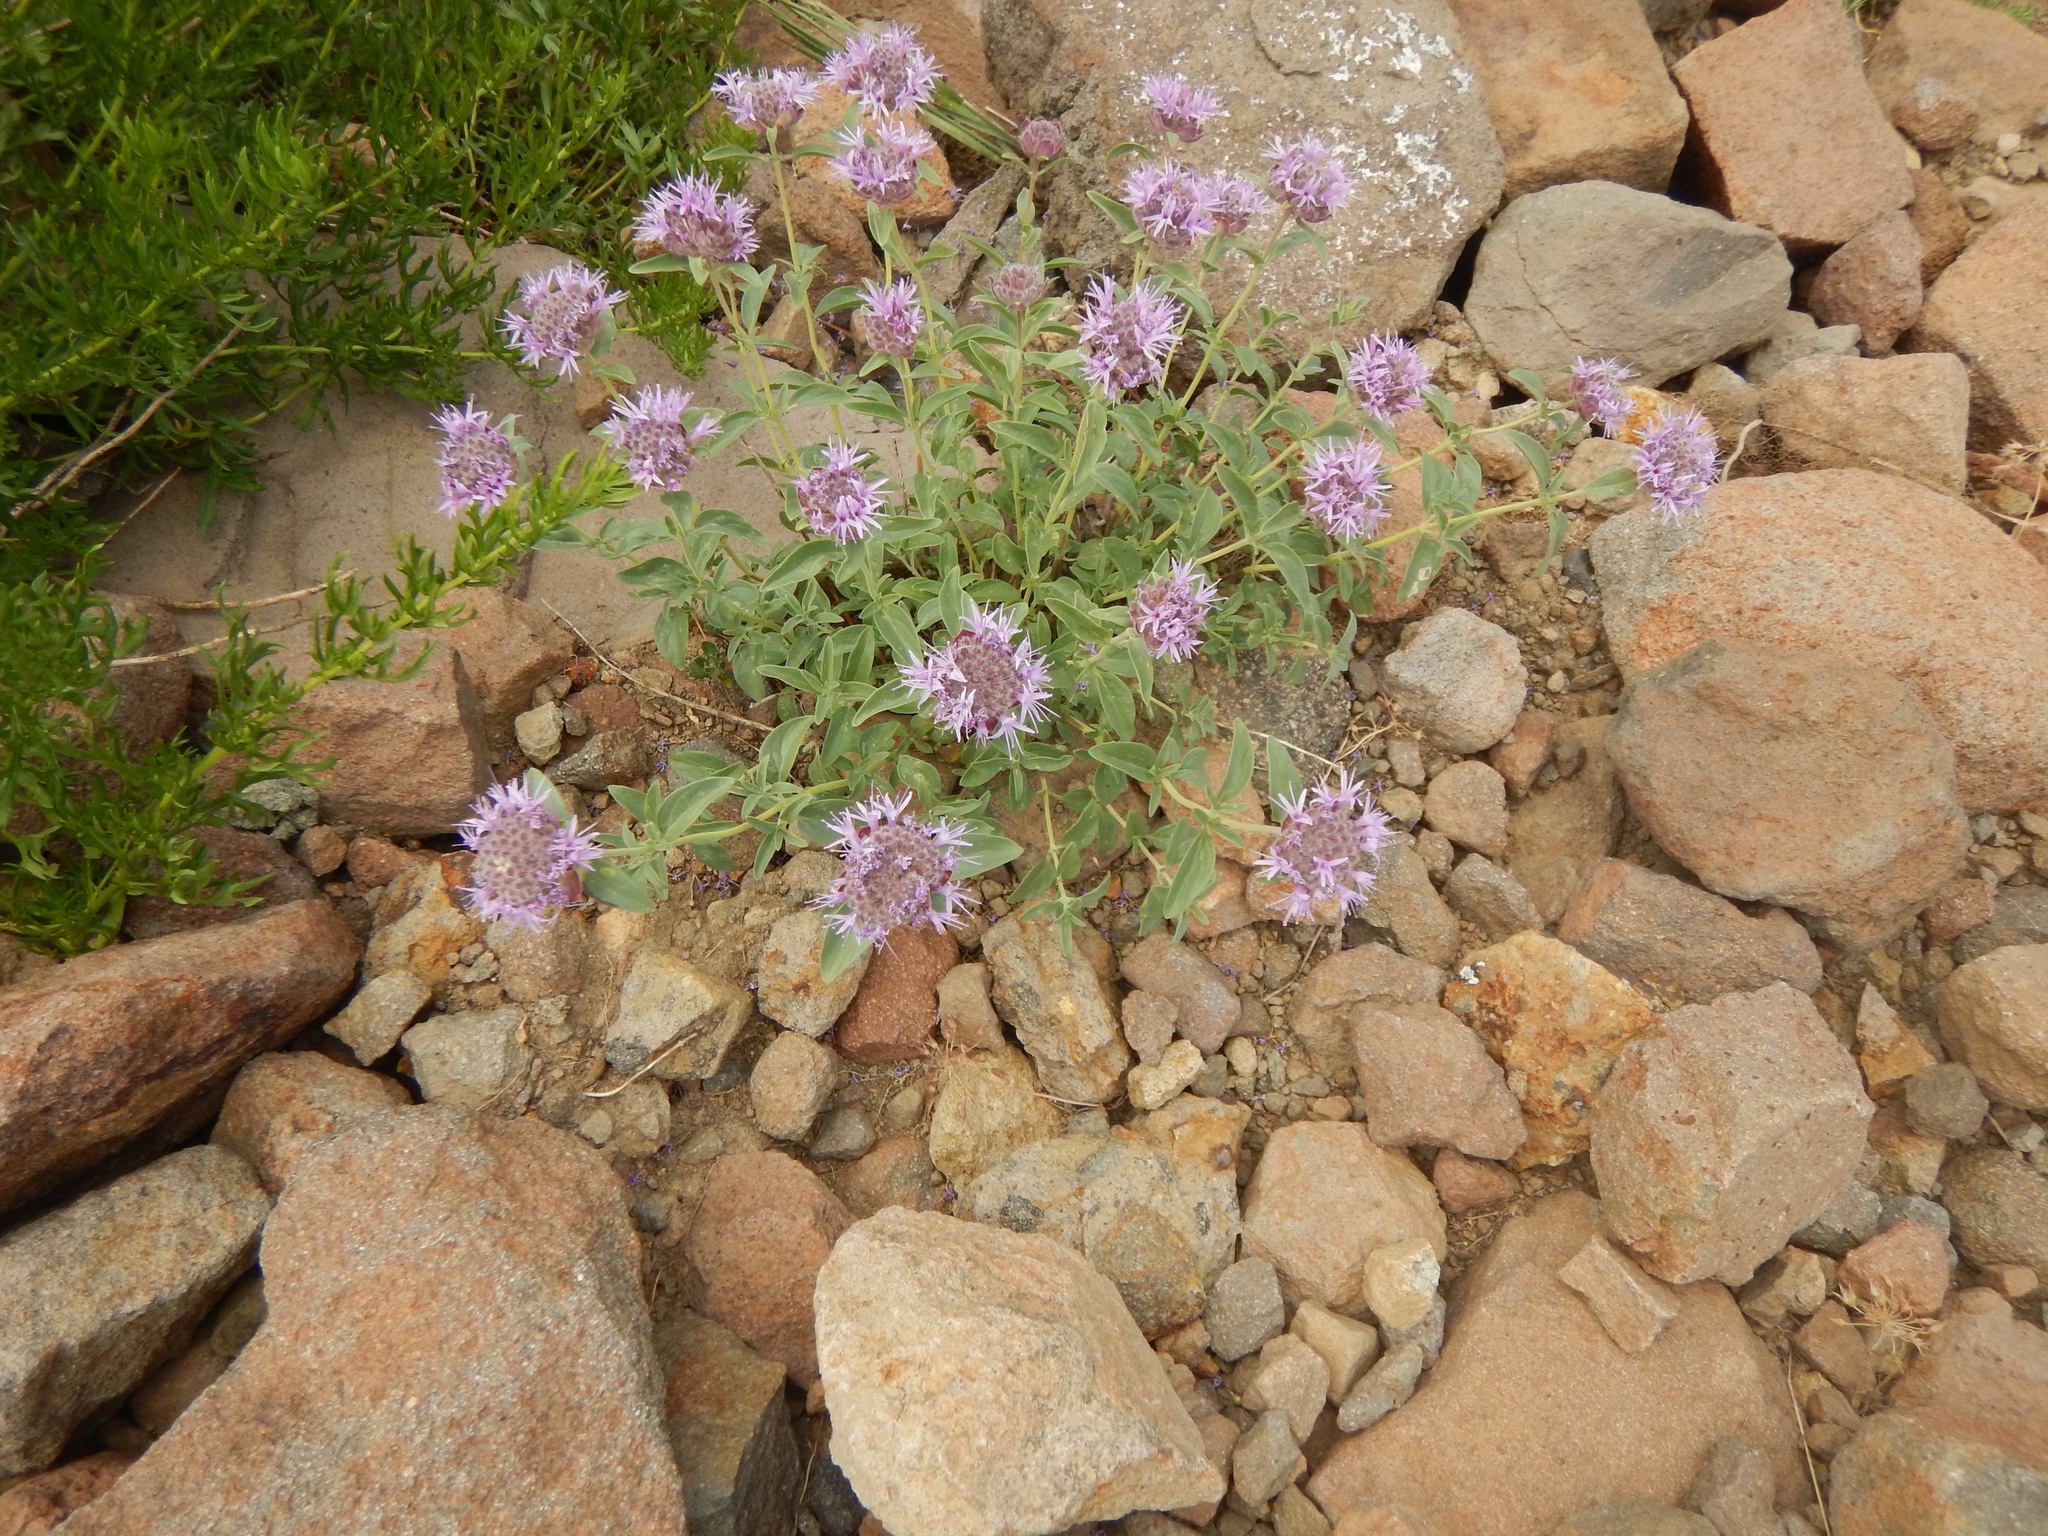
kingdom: Plantae
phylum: Tracheophyta
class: Magnoliopsida
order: Lamiales
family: Lamiaceae
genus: Monardella
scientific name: Monardella odoratissima
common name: Pacific monardella
